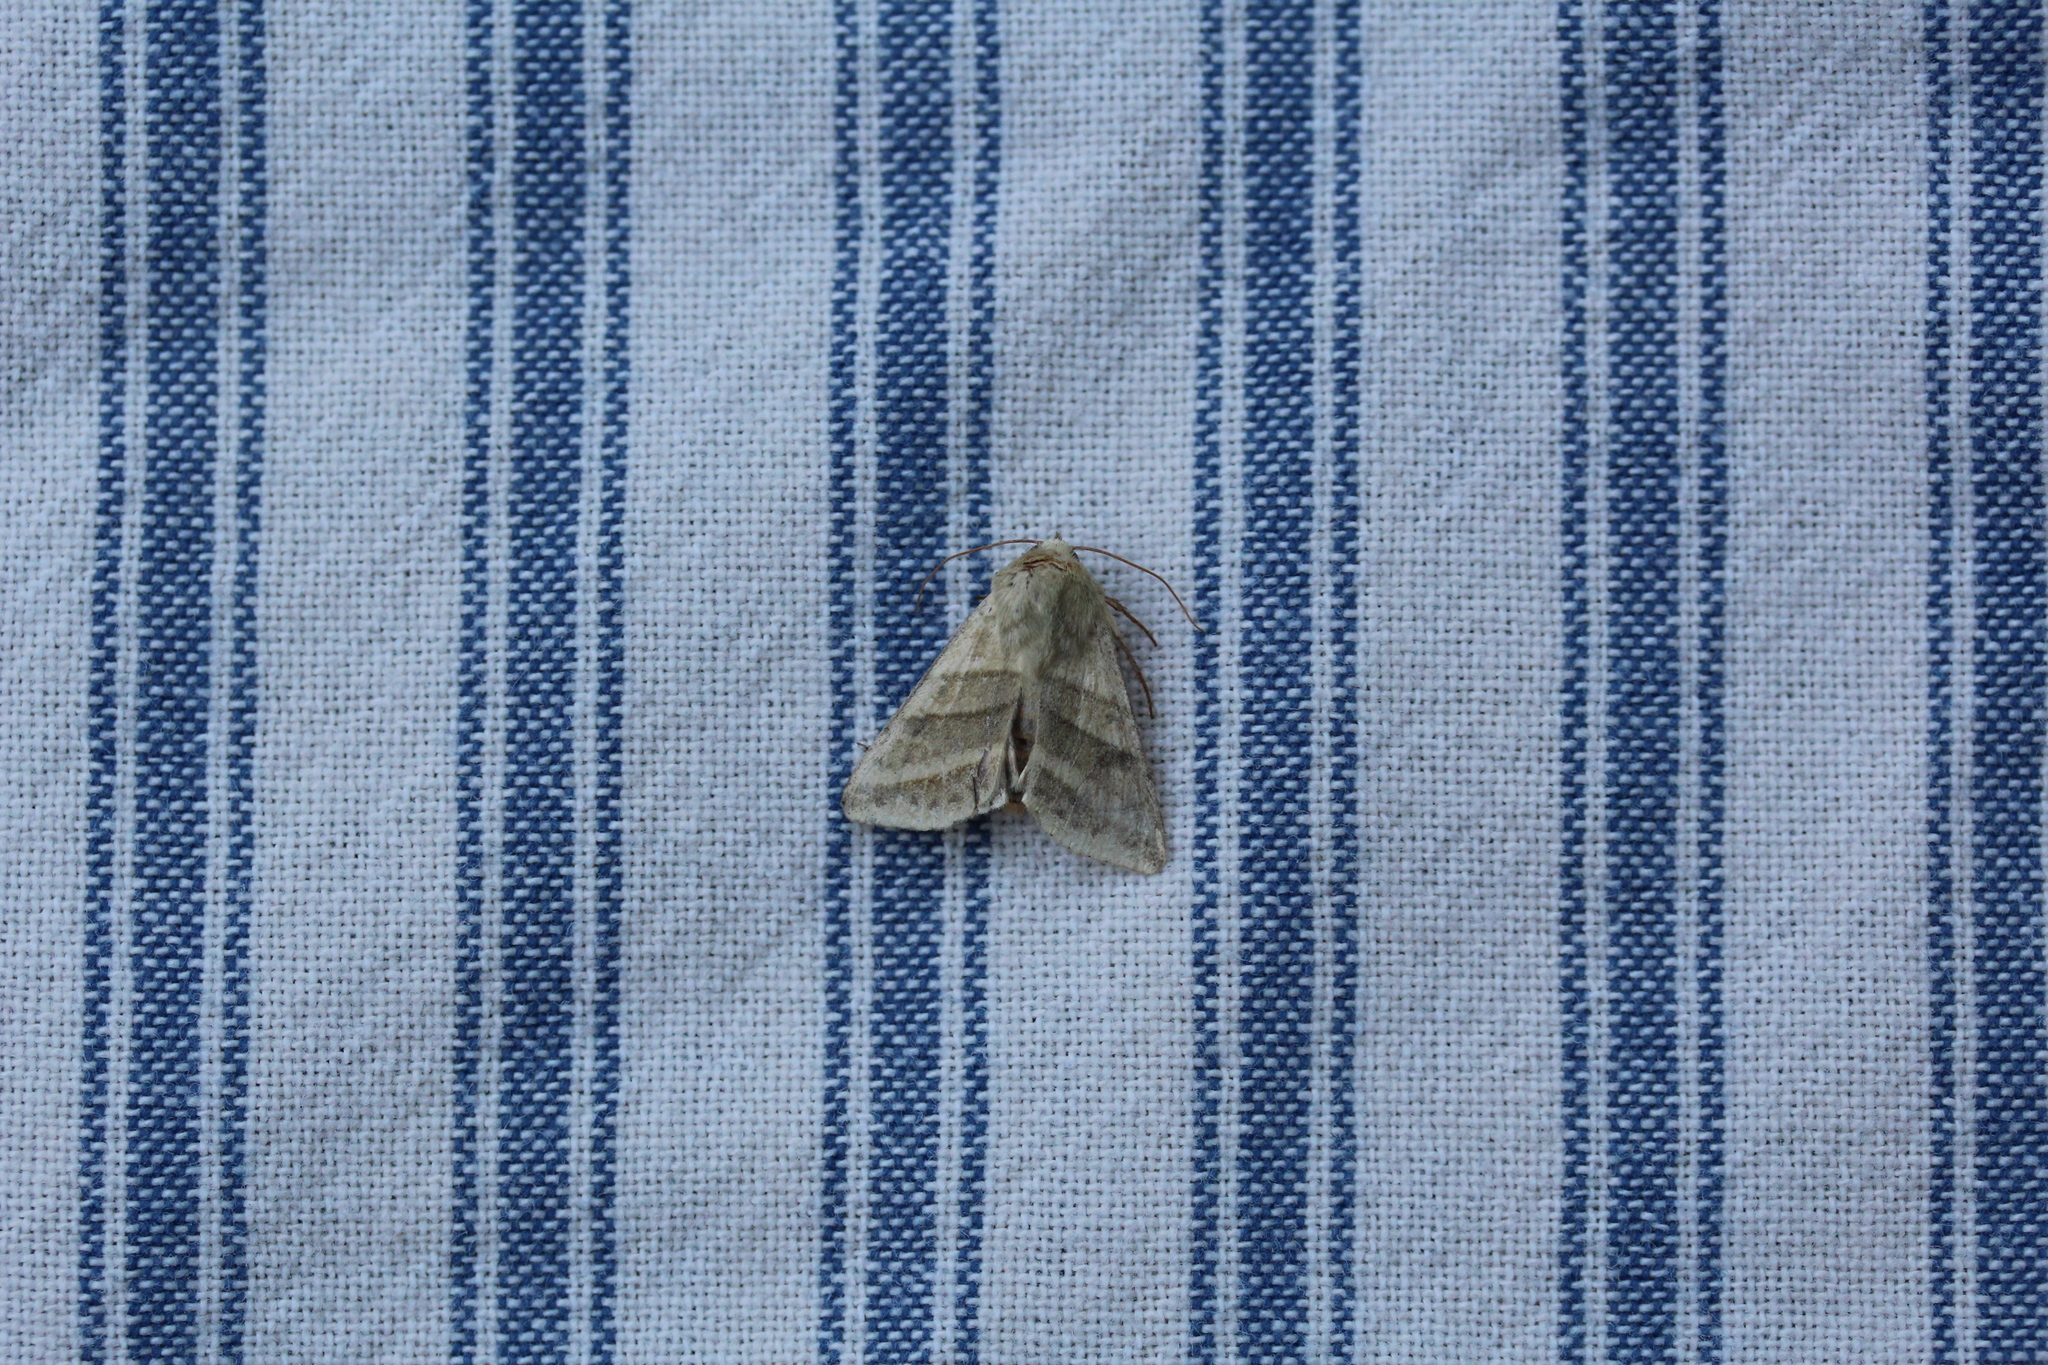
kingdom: Animalia
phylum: Arthropoda
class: Insecta
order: Lepidoptera
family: Noctuidae
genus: Chloridea
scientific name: Chloridea virescens
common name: Tobacco budworm
